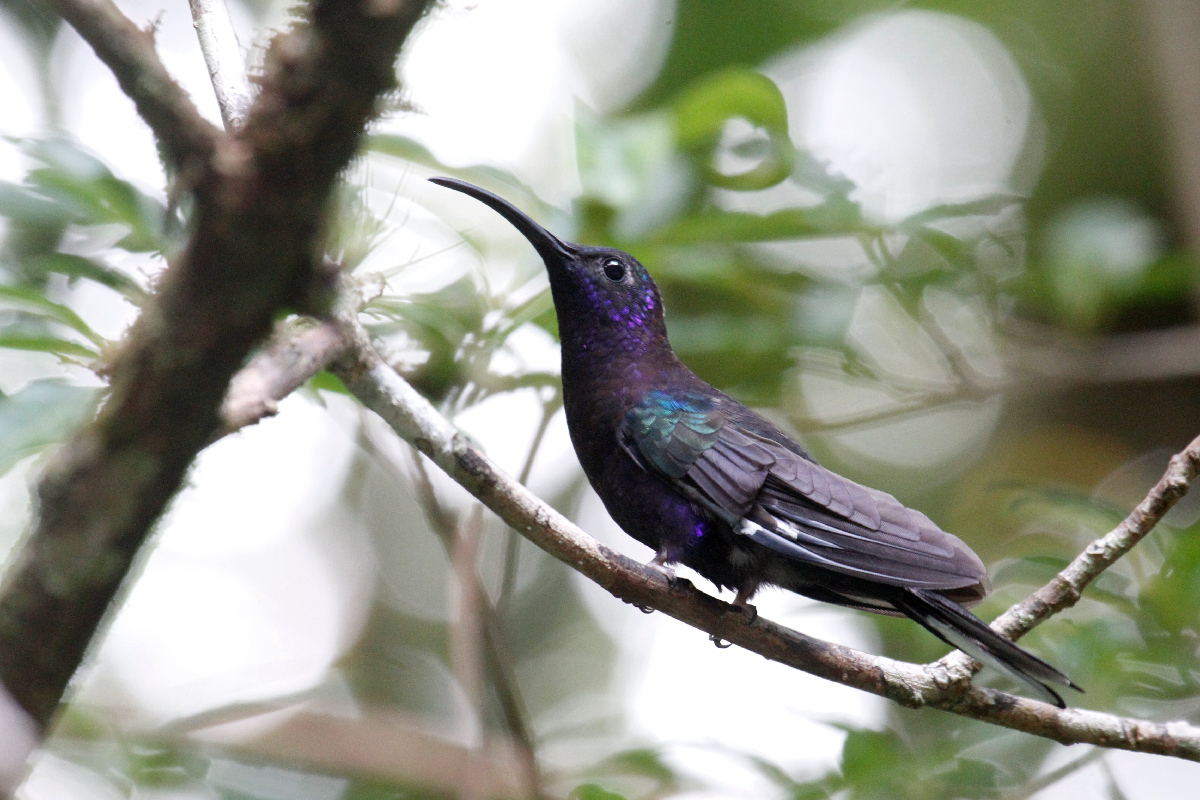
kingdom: Animalia
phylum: Chordata
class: Aves
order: Apodiformes
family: Trochilidae
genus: Campylopterus
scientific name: Campylopterus hemileucurus
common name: Violet sabrewing
